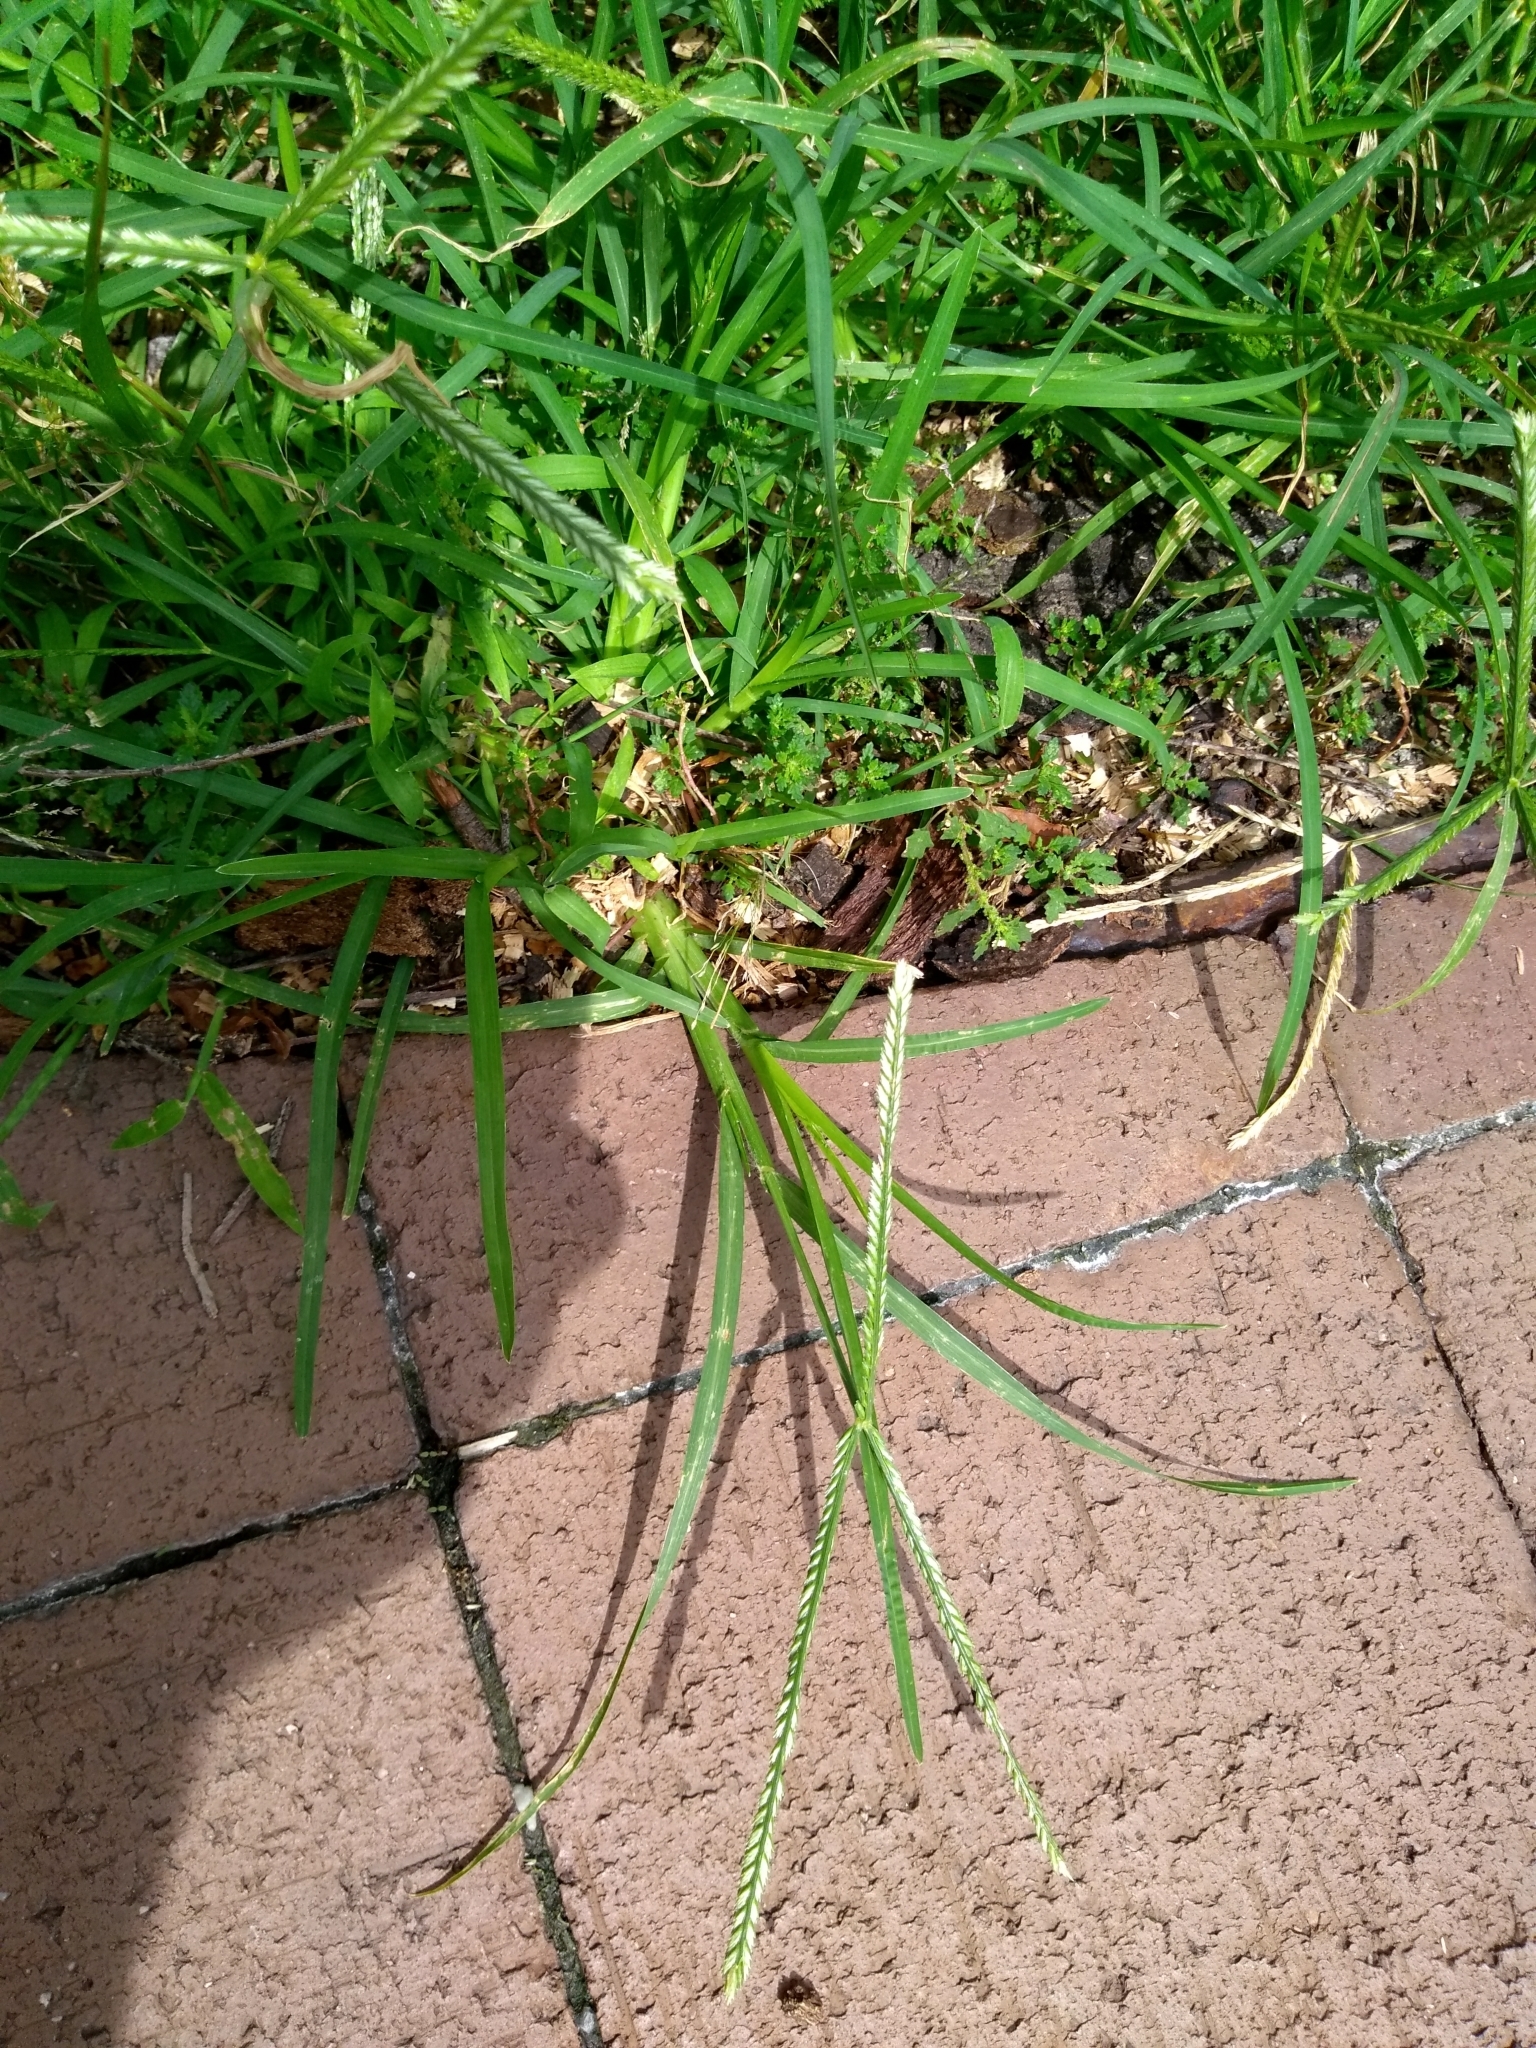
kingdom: Plantae
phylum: Tracheophyta
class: Liliopsida
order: Poales
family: Poaceae
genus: Eleusine
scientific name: Eleusine indica
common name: Yard-grass
